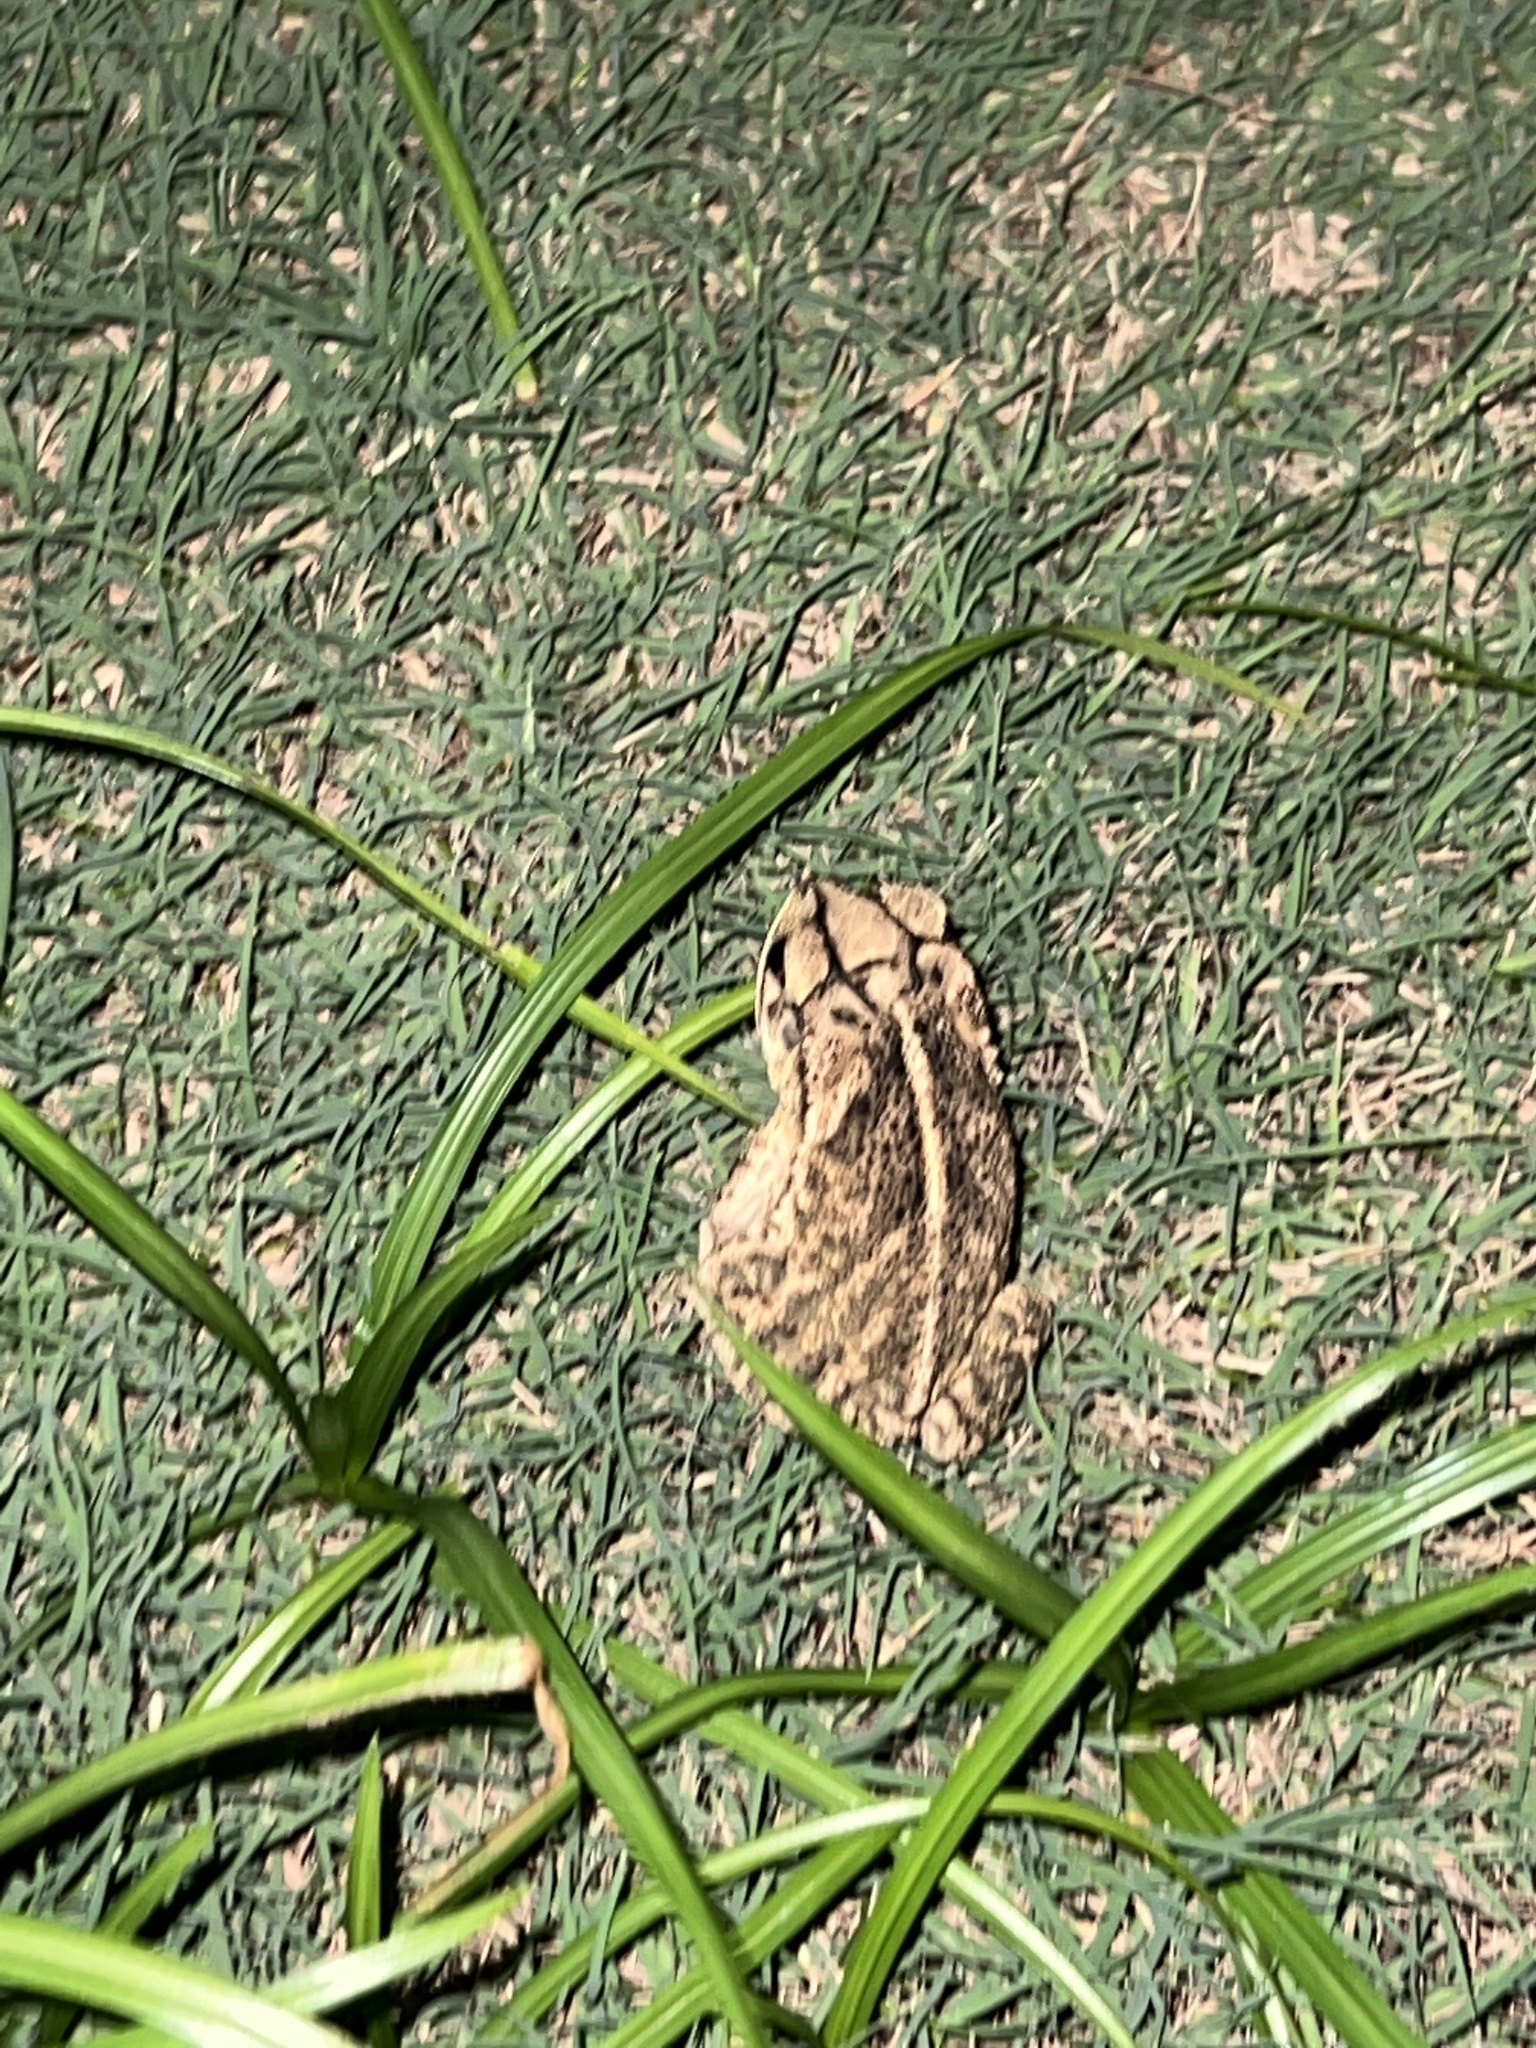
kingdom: Animalia
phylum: Chordata
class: Amphibia
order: Anura
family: Bufonidae
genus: Incilius
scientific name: Incilius nebulifer
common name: Gulf coast toad
